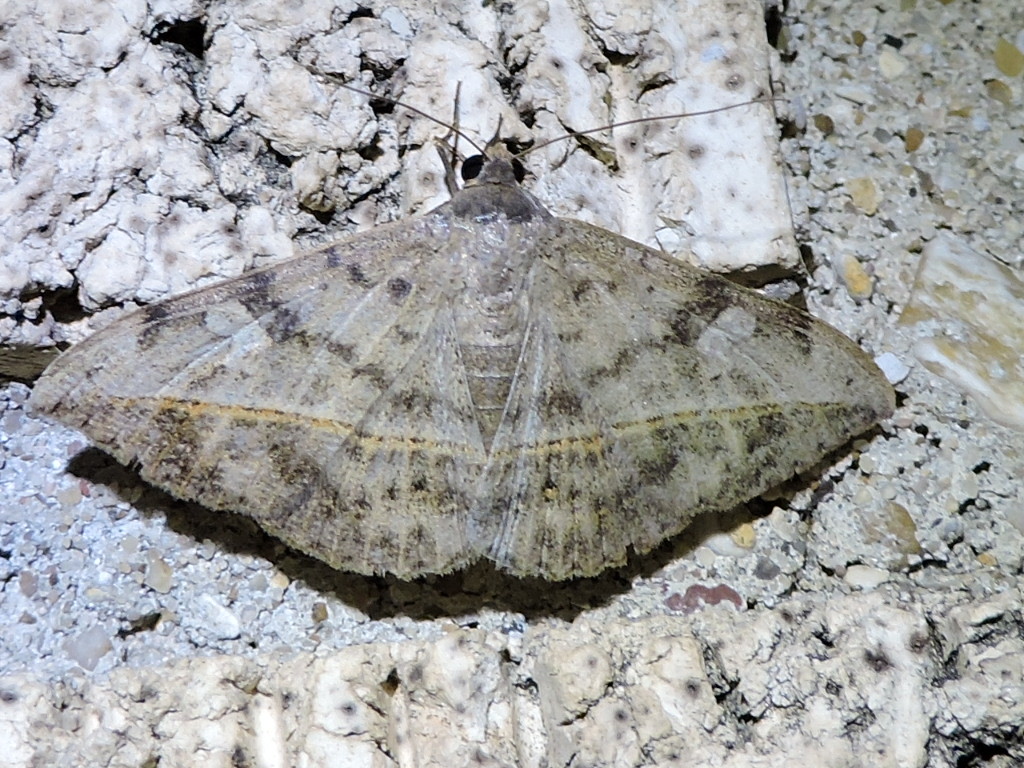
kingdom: Animalia
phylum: Arthropoda
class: Insecta
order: Lepidoptera
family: Erebidae
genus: Anticarsia
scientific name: Anticarsia gemmatalis
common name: Cutworm moth
